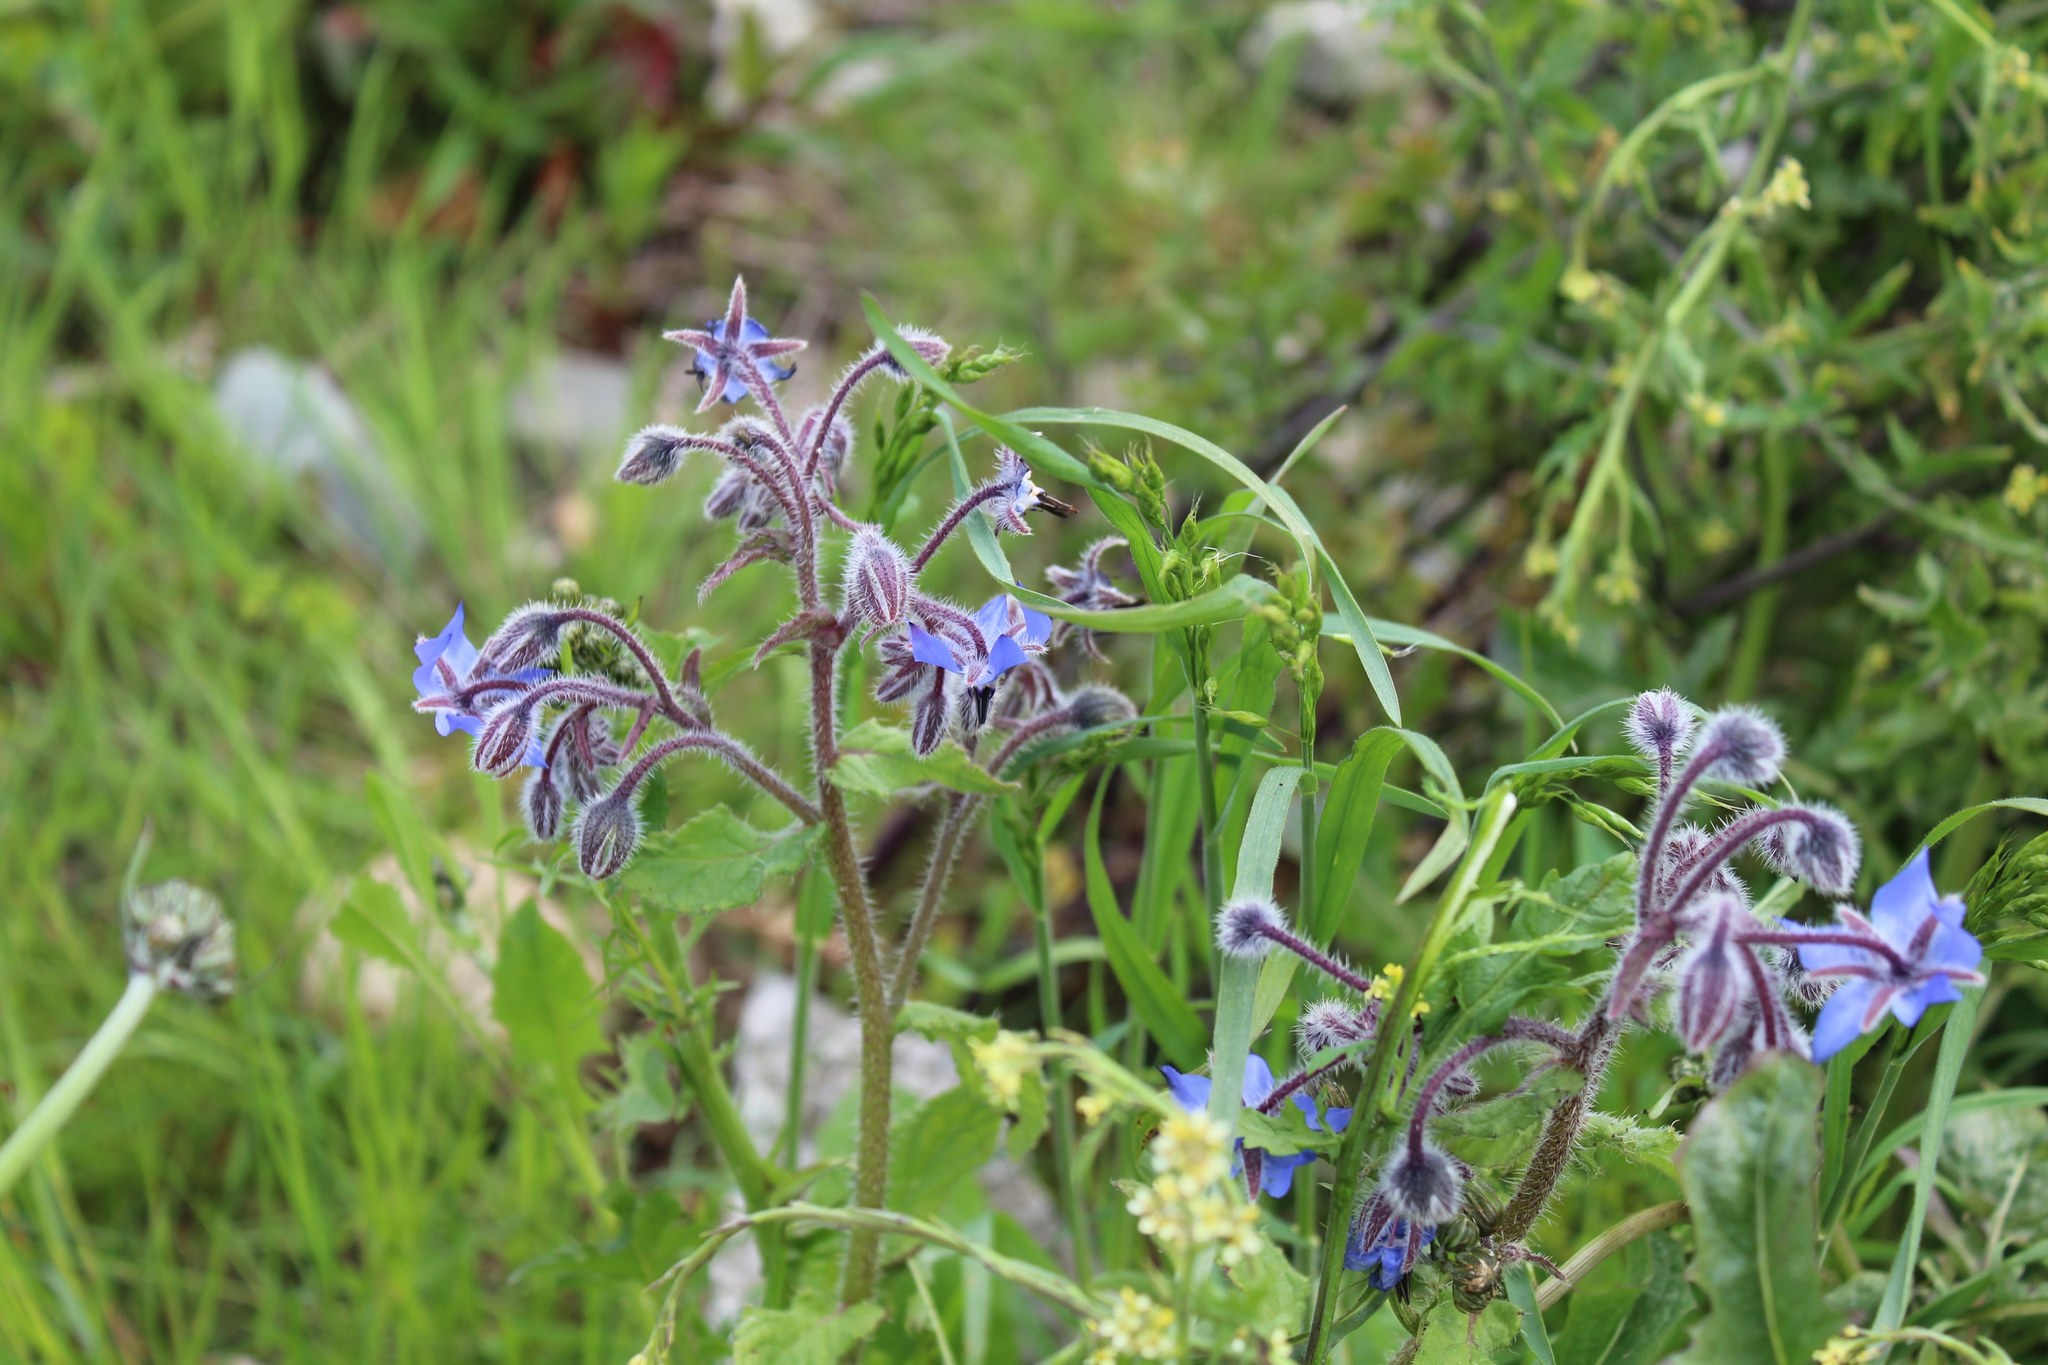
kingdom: Plantae
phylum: Tracheophyta
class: Magnoliopsida
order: Boraginales
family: Boraginaceae
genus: Borago
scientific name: Borago officinalis
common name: Borage
